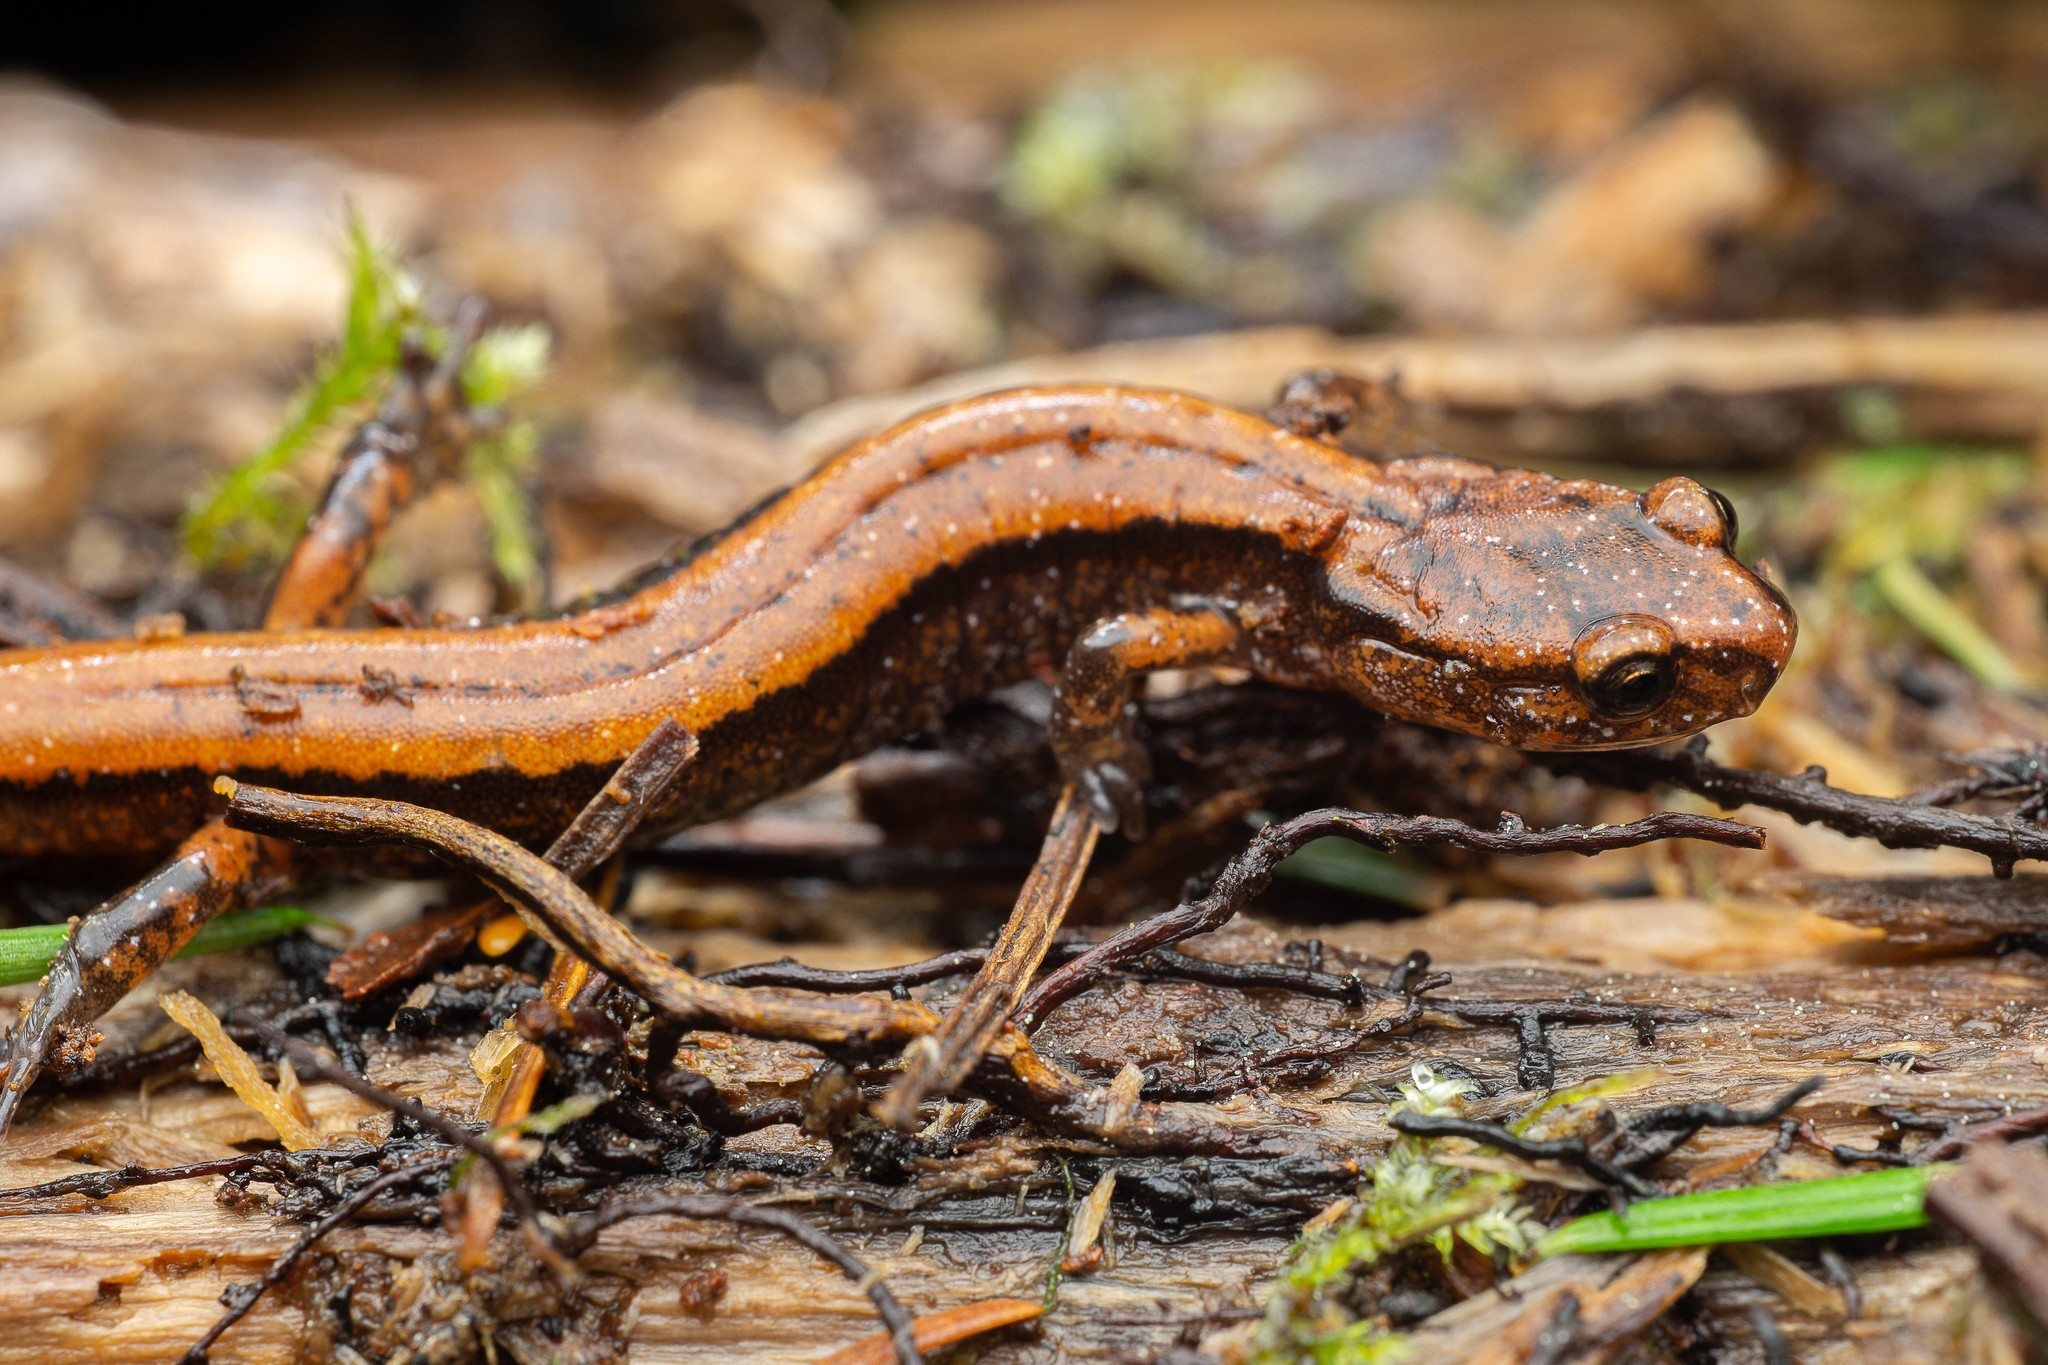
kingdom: Animalia
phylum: Chordata
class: Amphibia
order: Caudata
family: Plethodontidae
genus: Plethodon
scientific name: Plethodon vehiculum
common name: Western red-backed salamander
